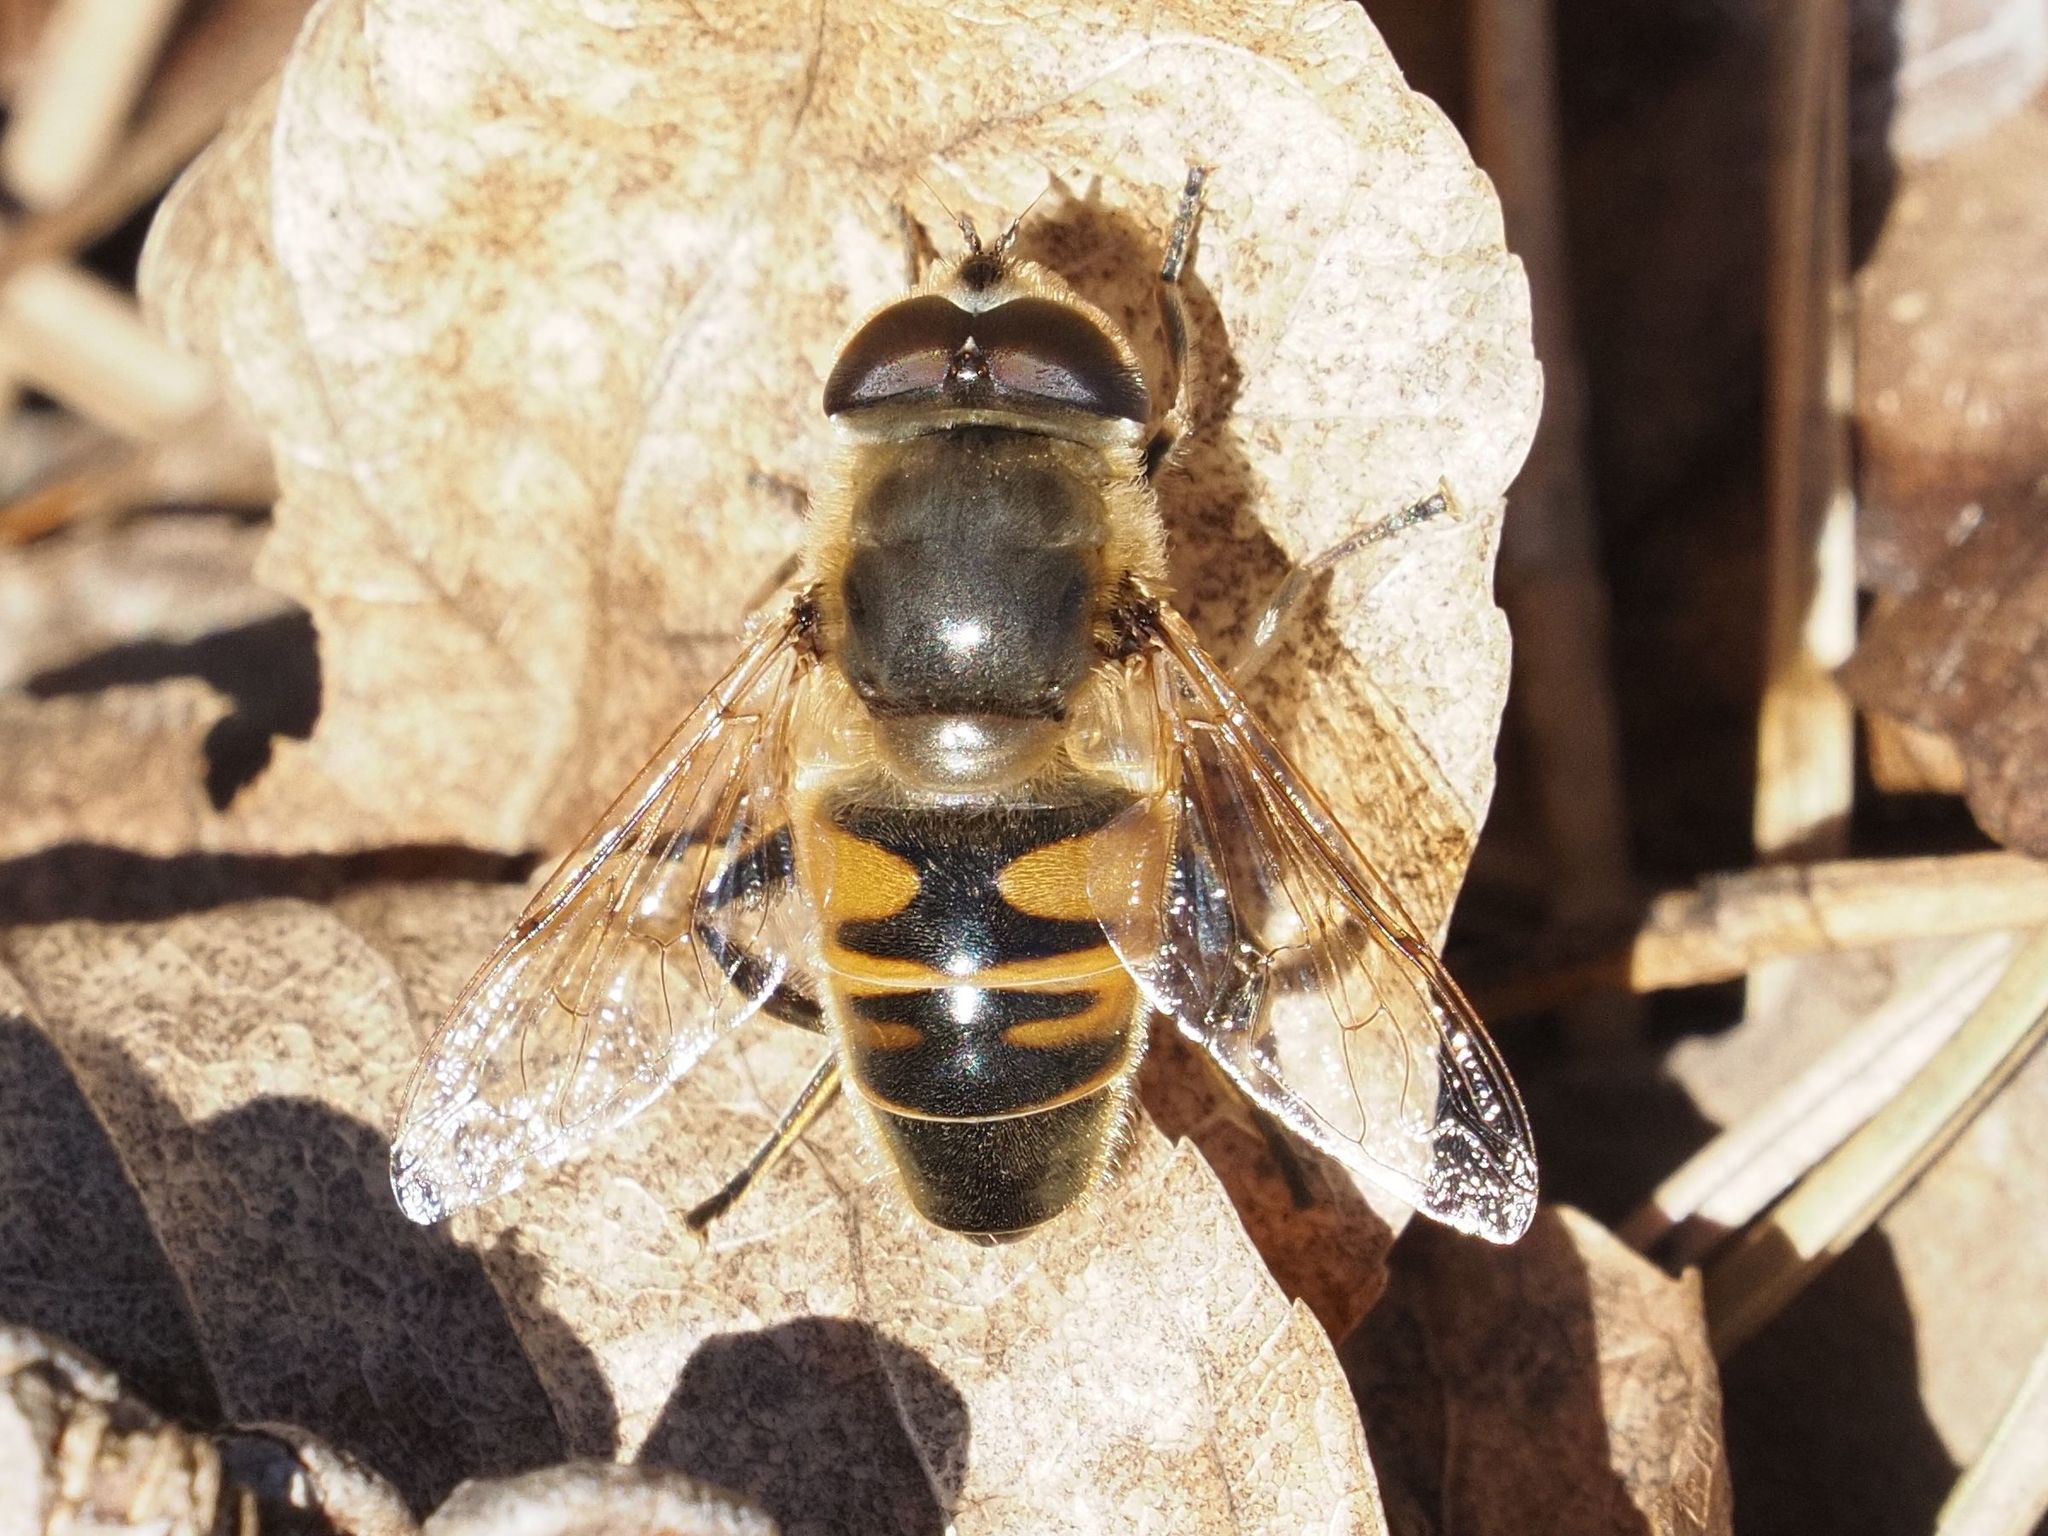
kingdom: Animalia
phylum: Arthropoda
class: Insecta
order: Diptera
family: Syrphidae
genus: Eristalis
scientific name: Eristalis tenax
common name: Drone fly
